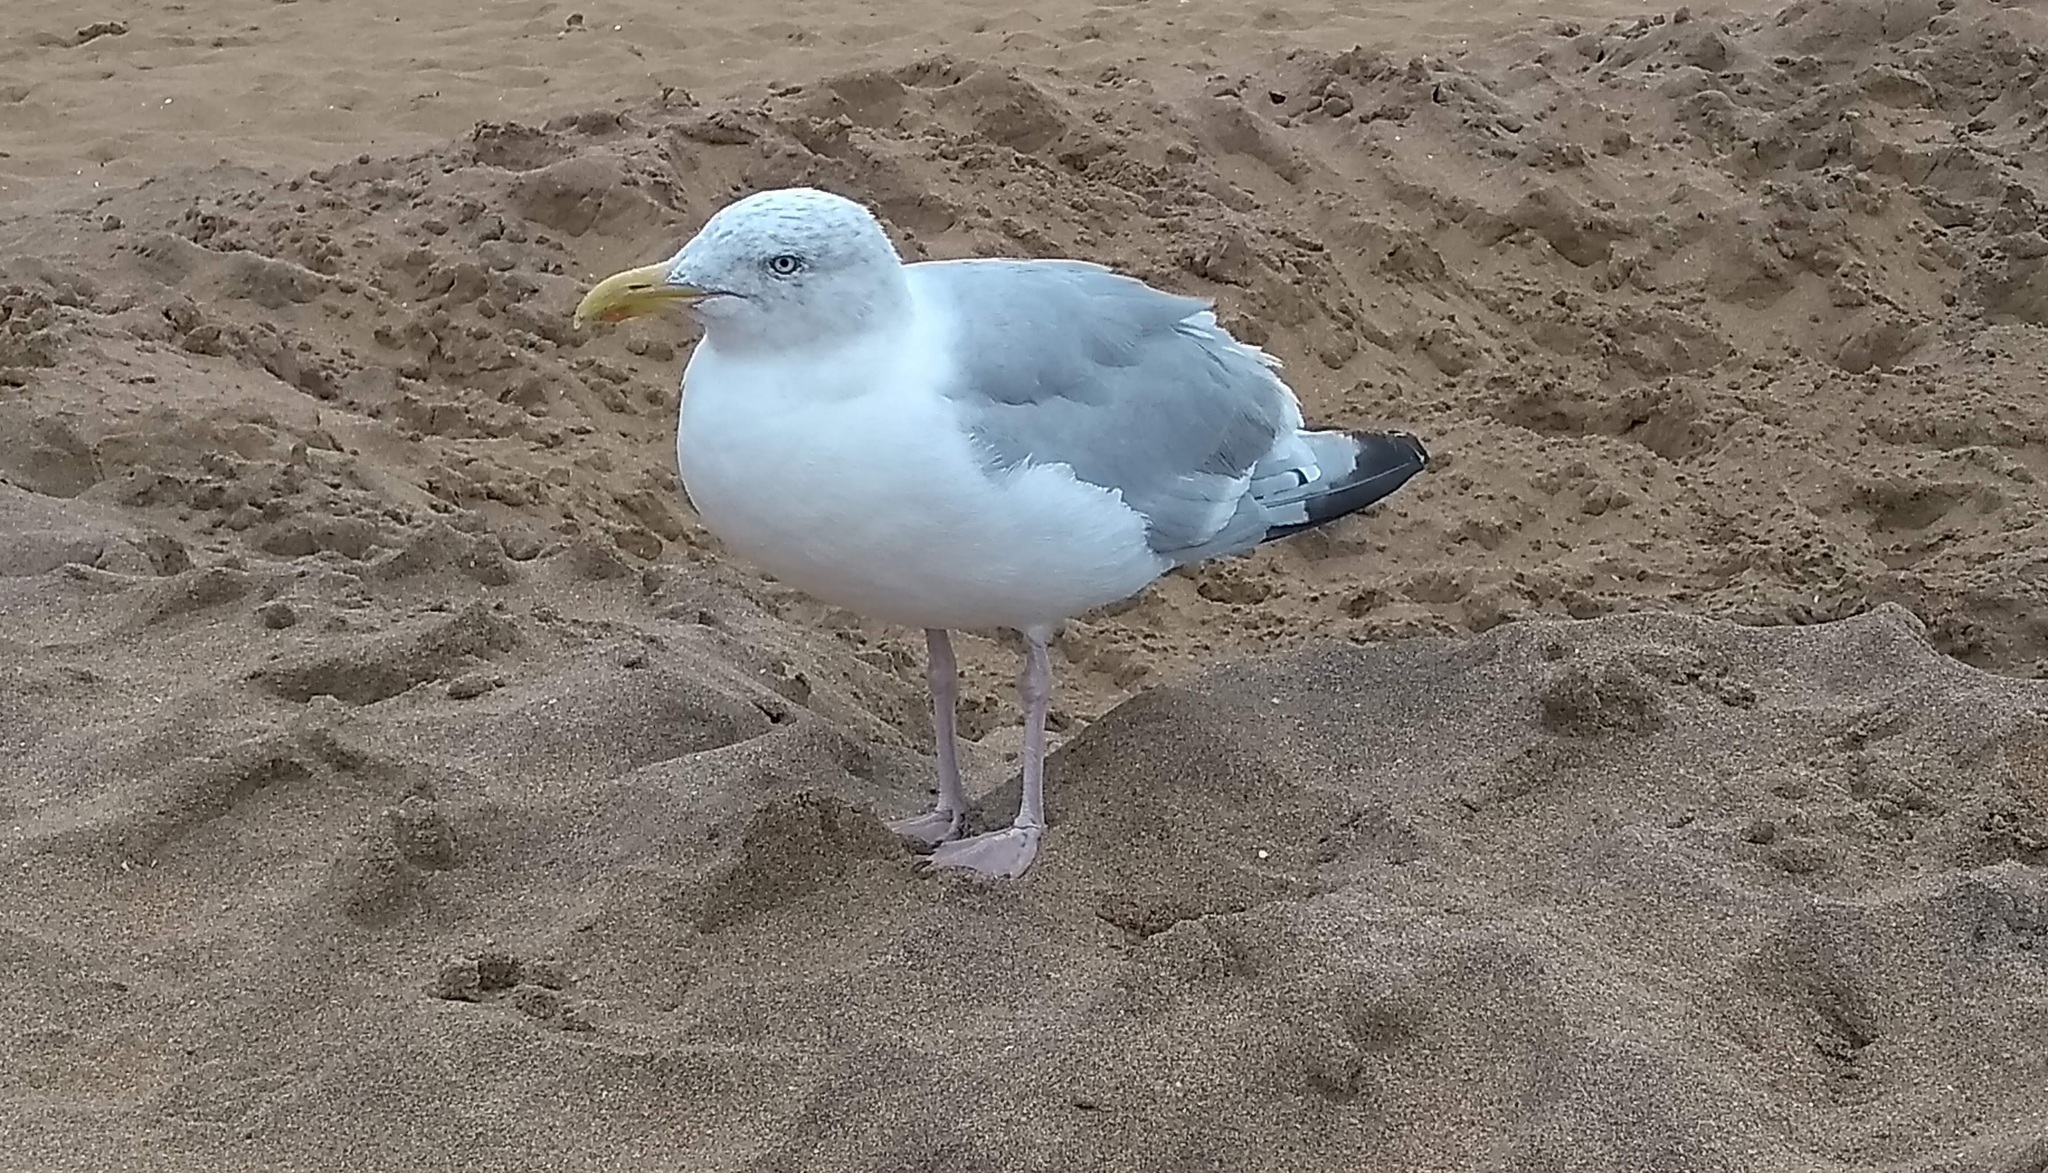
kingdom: Animalia
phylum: Chordata
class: Aves
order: Charadriiformes
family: Laridae
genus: Larus
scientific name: Larus argentatus
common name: Herring gull
